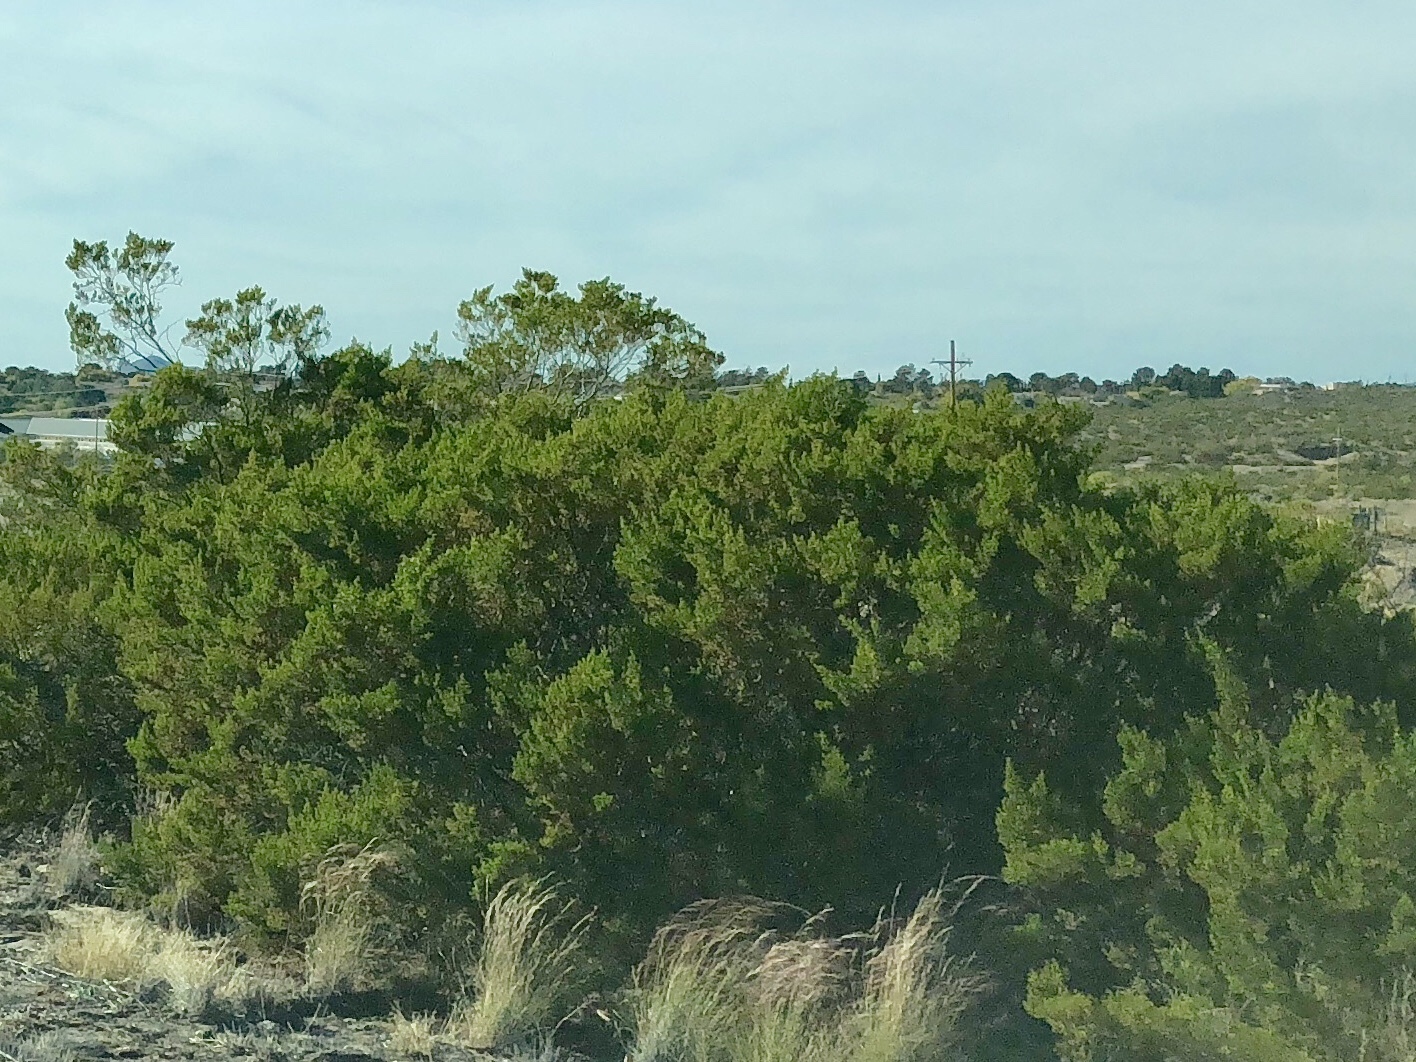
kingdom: Plantae
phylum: Tracheophyta
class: Magnoliopsida
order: Zygophyllales
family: Zygophyllaceae
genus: Larrea
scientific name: Larrea tridentata
